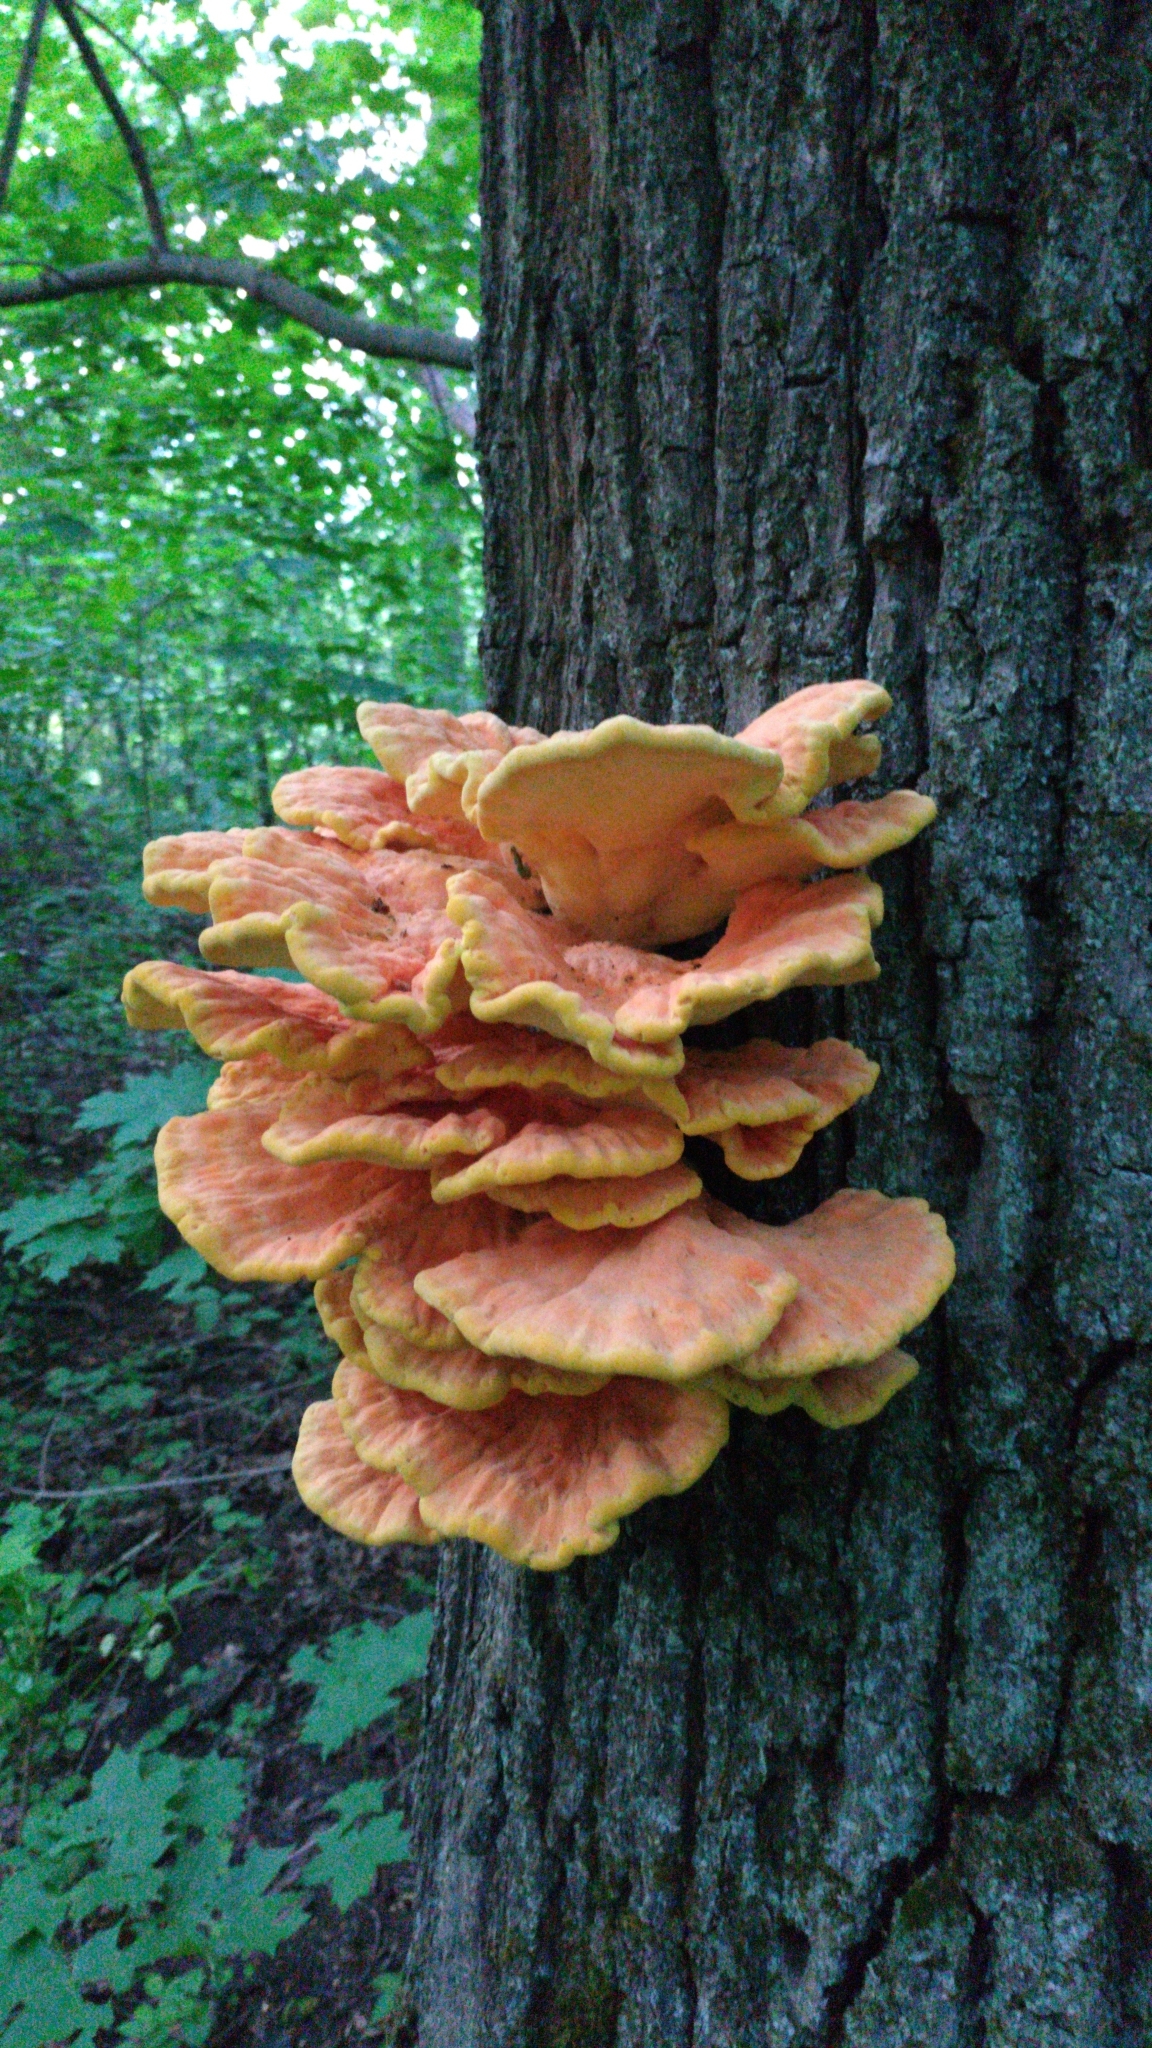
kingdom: Fungi
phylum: Basidiomycota
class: Agaricomycetes
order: Polyporales
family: Laetiporaceae
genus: Laetiporus
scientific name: Laetiporus sulphureus
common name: Chicken of the woods
